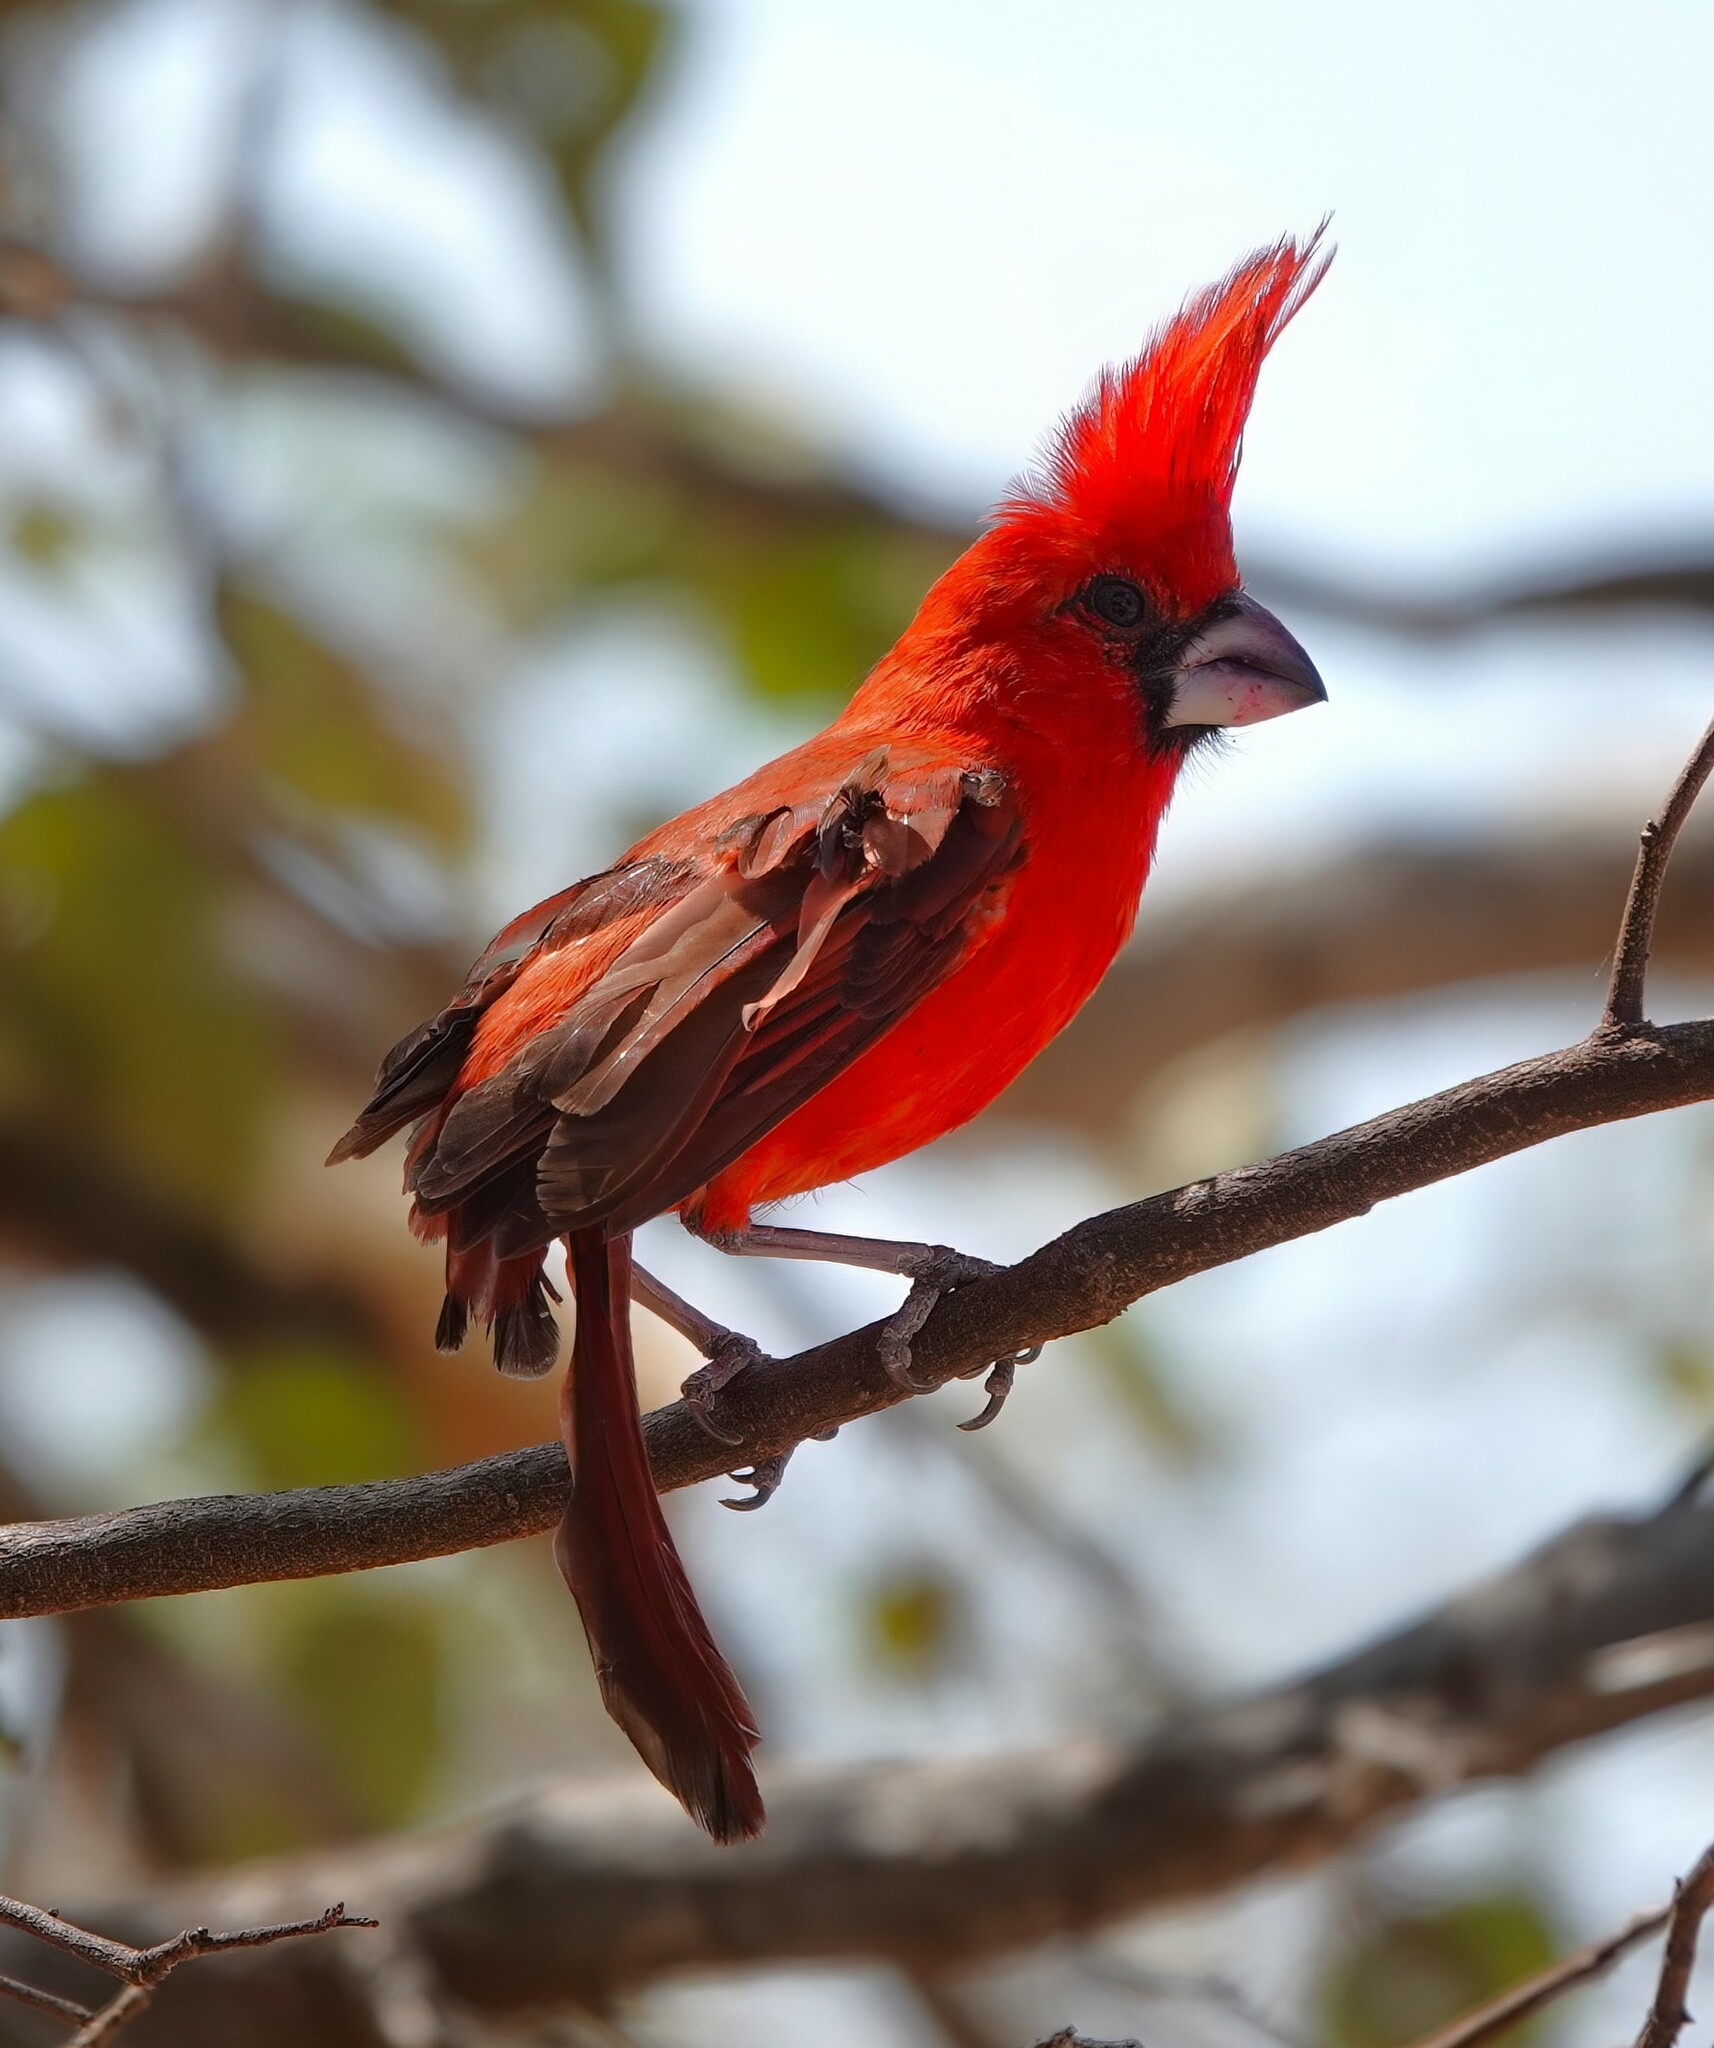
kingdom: Animalia
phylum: Chordata
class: Aves
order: Passeriformes
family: Cardinalidae
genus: Cardinalis
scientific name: Cardinalis phoeniceus
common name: Vermilion cardinal
